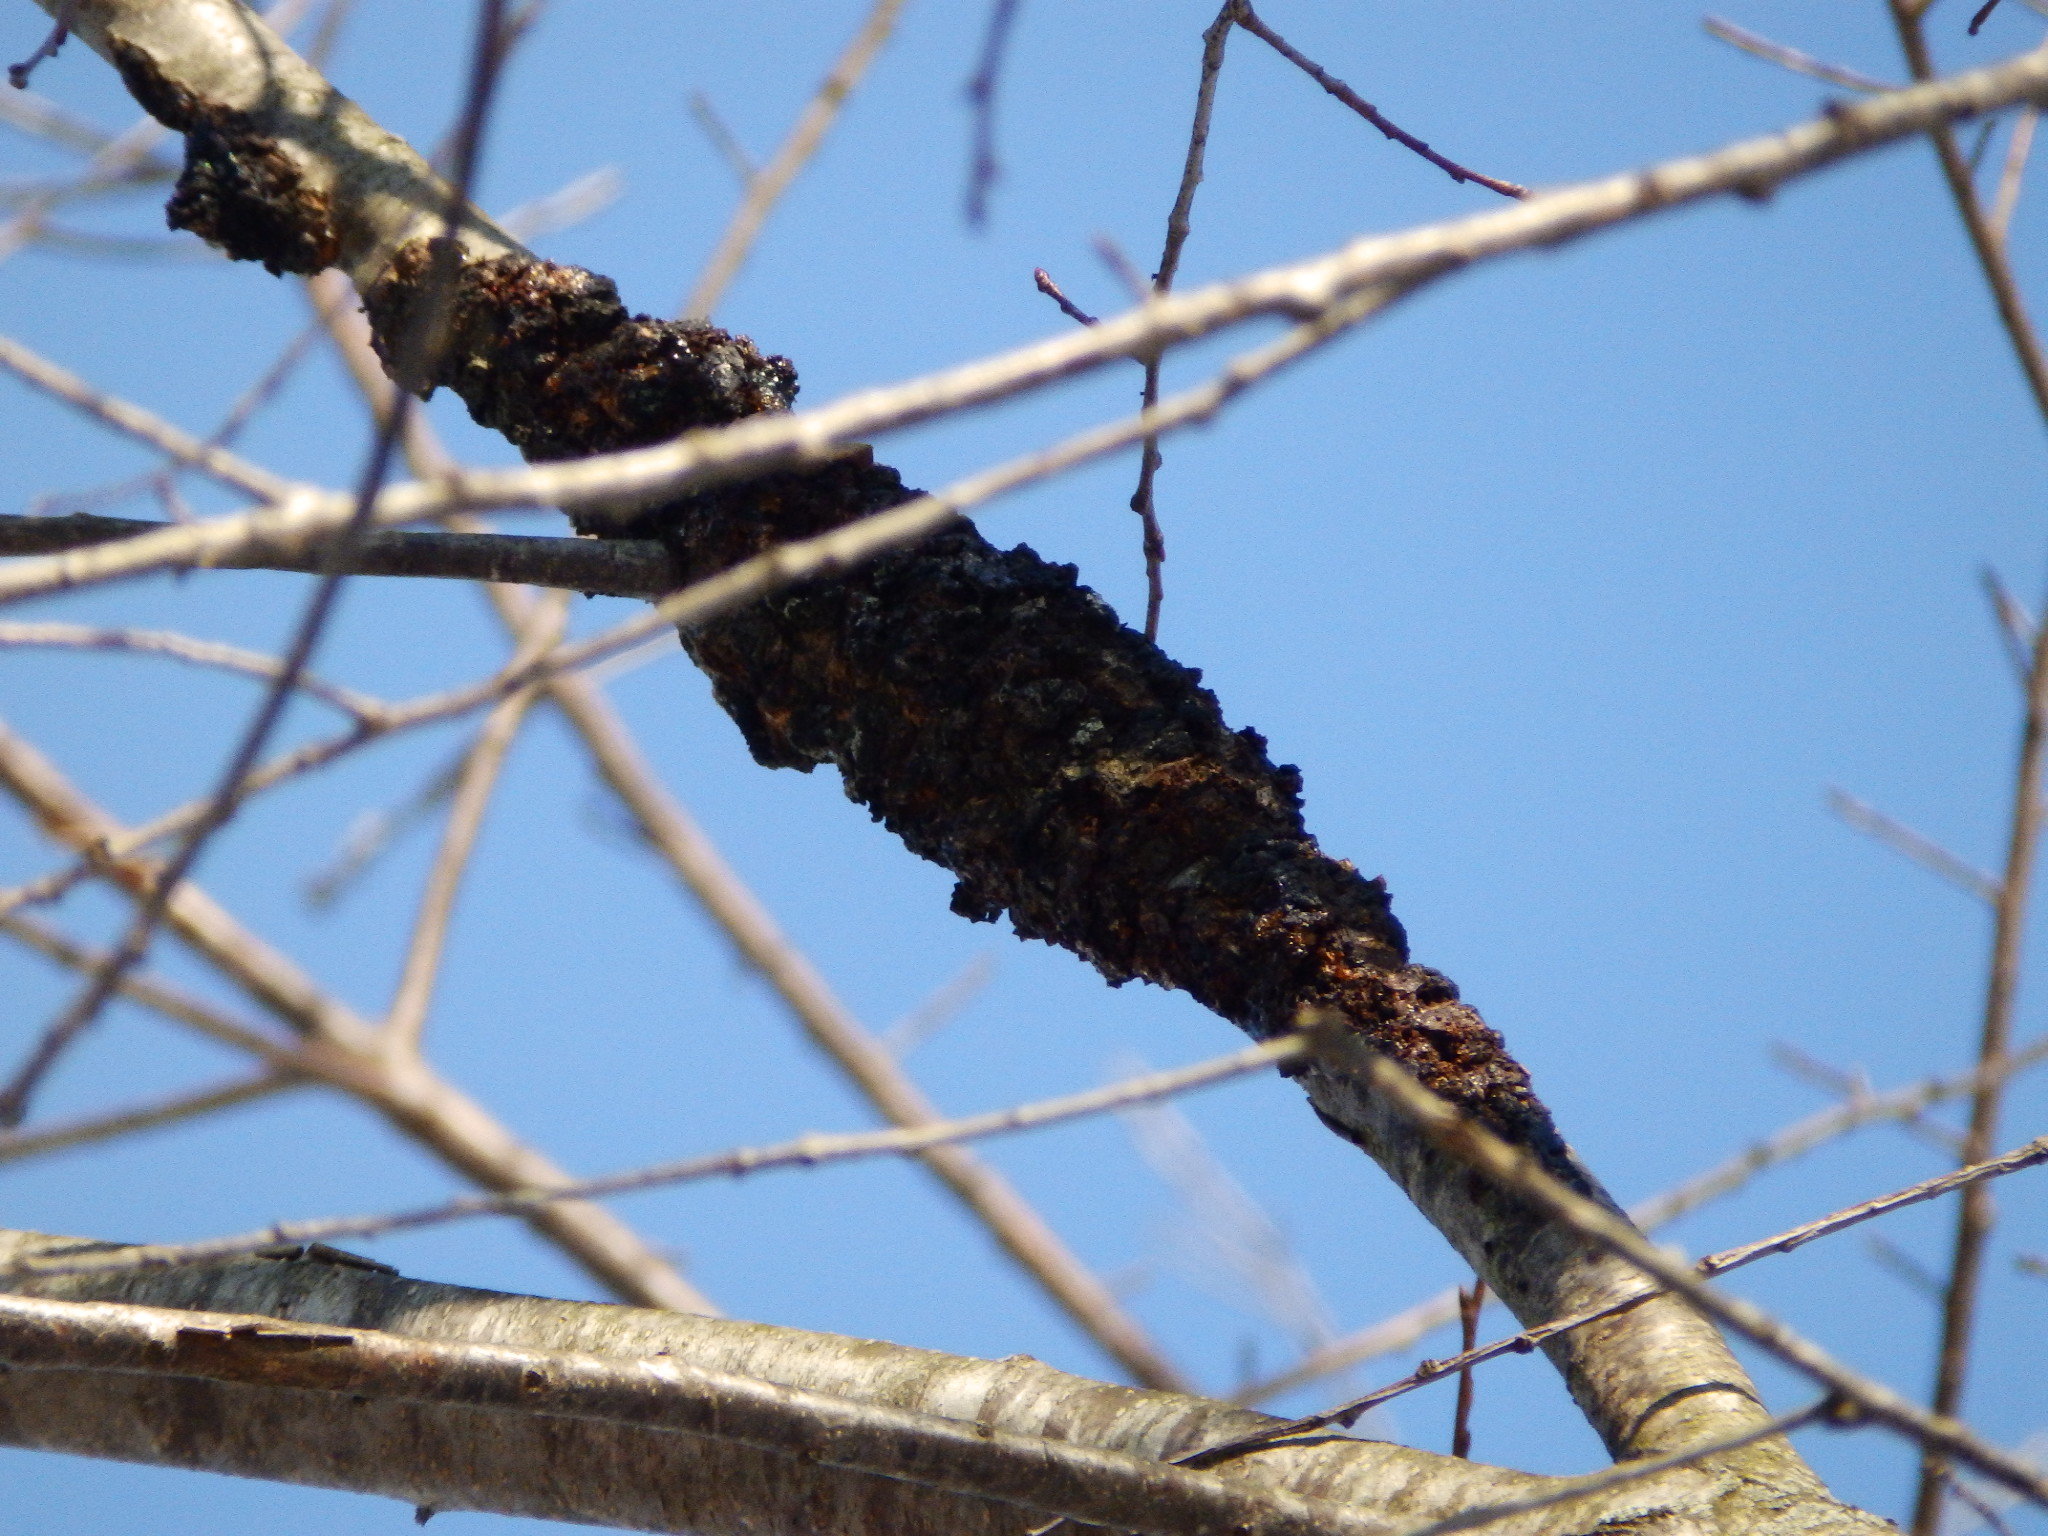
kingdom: Fungi
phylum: Ascomycota
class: Dothideomycetes
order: Venturiales
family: Venturiaceae
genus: Apiosporina
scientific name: Apiosporina morbosa
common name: Black knot
